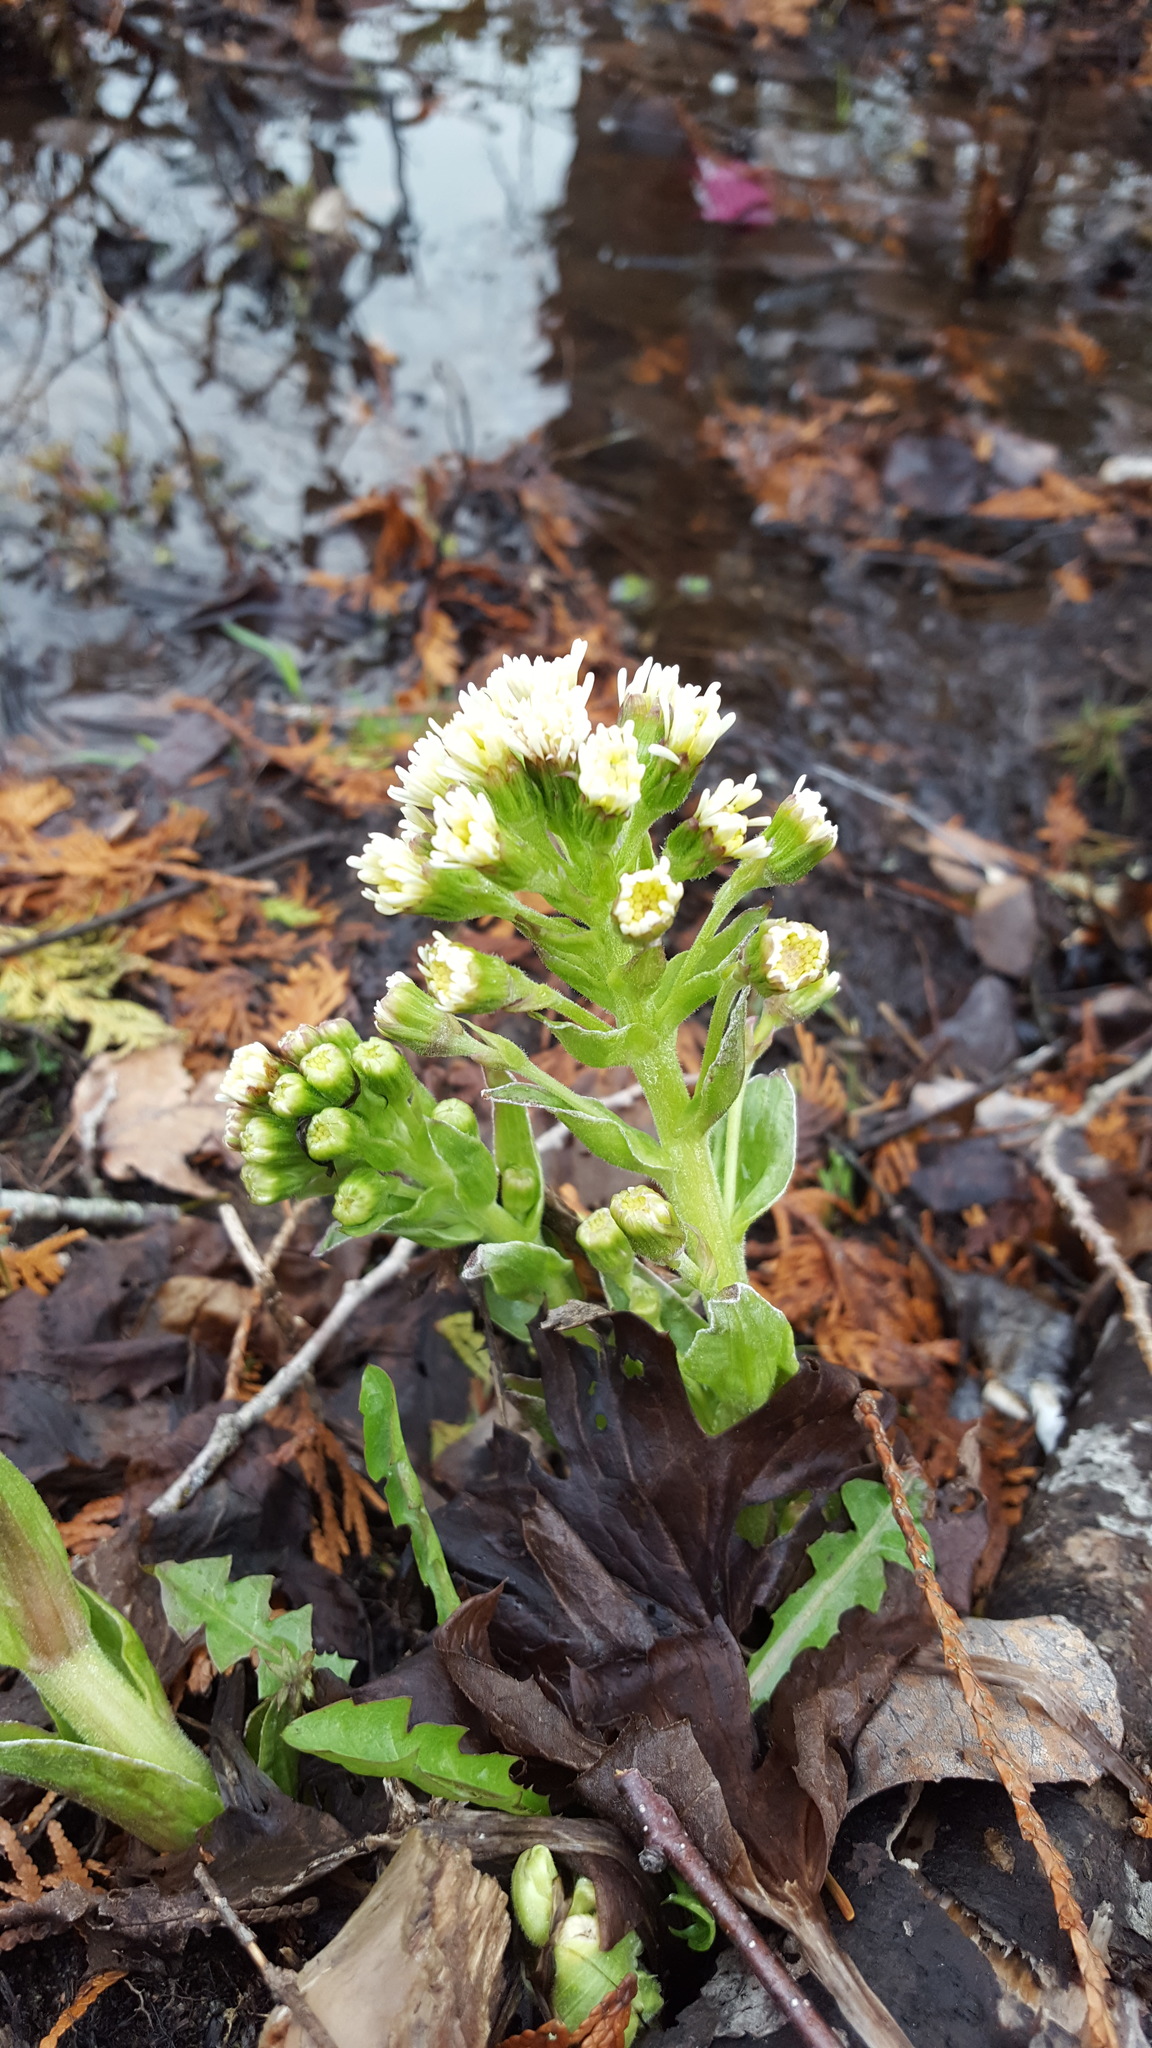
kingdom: Plantae
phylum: Tracheophyta
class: Magnoliopsida
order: Asterales
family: Asteraceae
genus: Petasites
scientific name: Petasites frigidus
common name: Arctic butterbur
